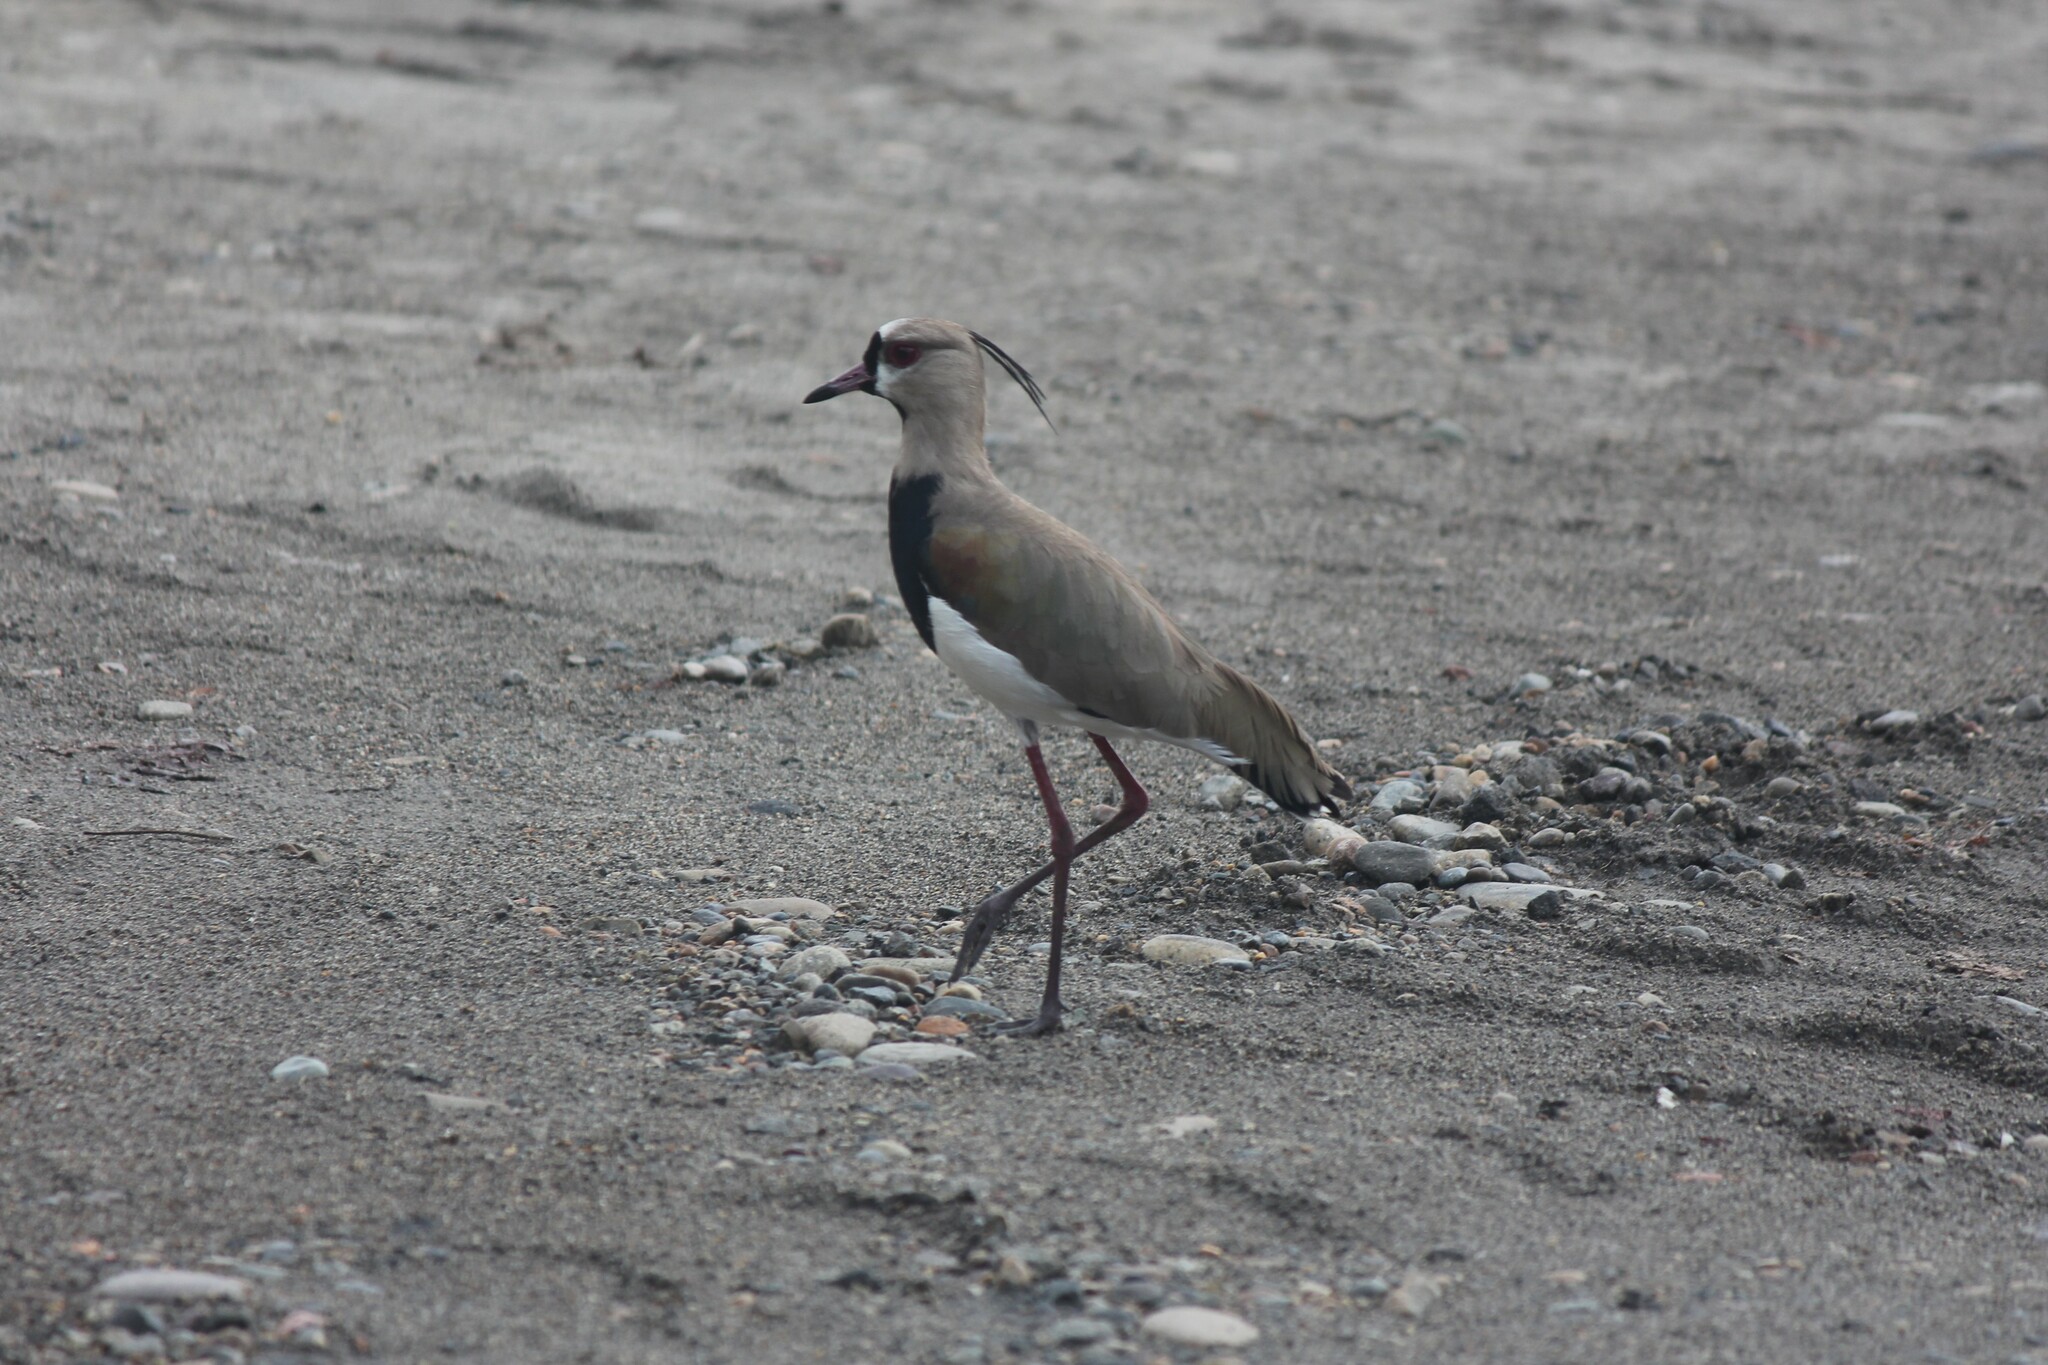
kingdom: Animalia
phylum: Chordata
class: Aves
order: Charadriiformes
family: Charadriidae
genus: Vanellus
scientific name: Vanellus chilensis
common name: Southern lapwing
